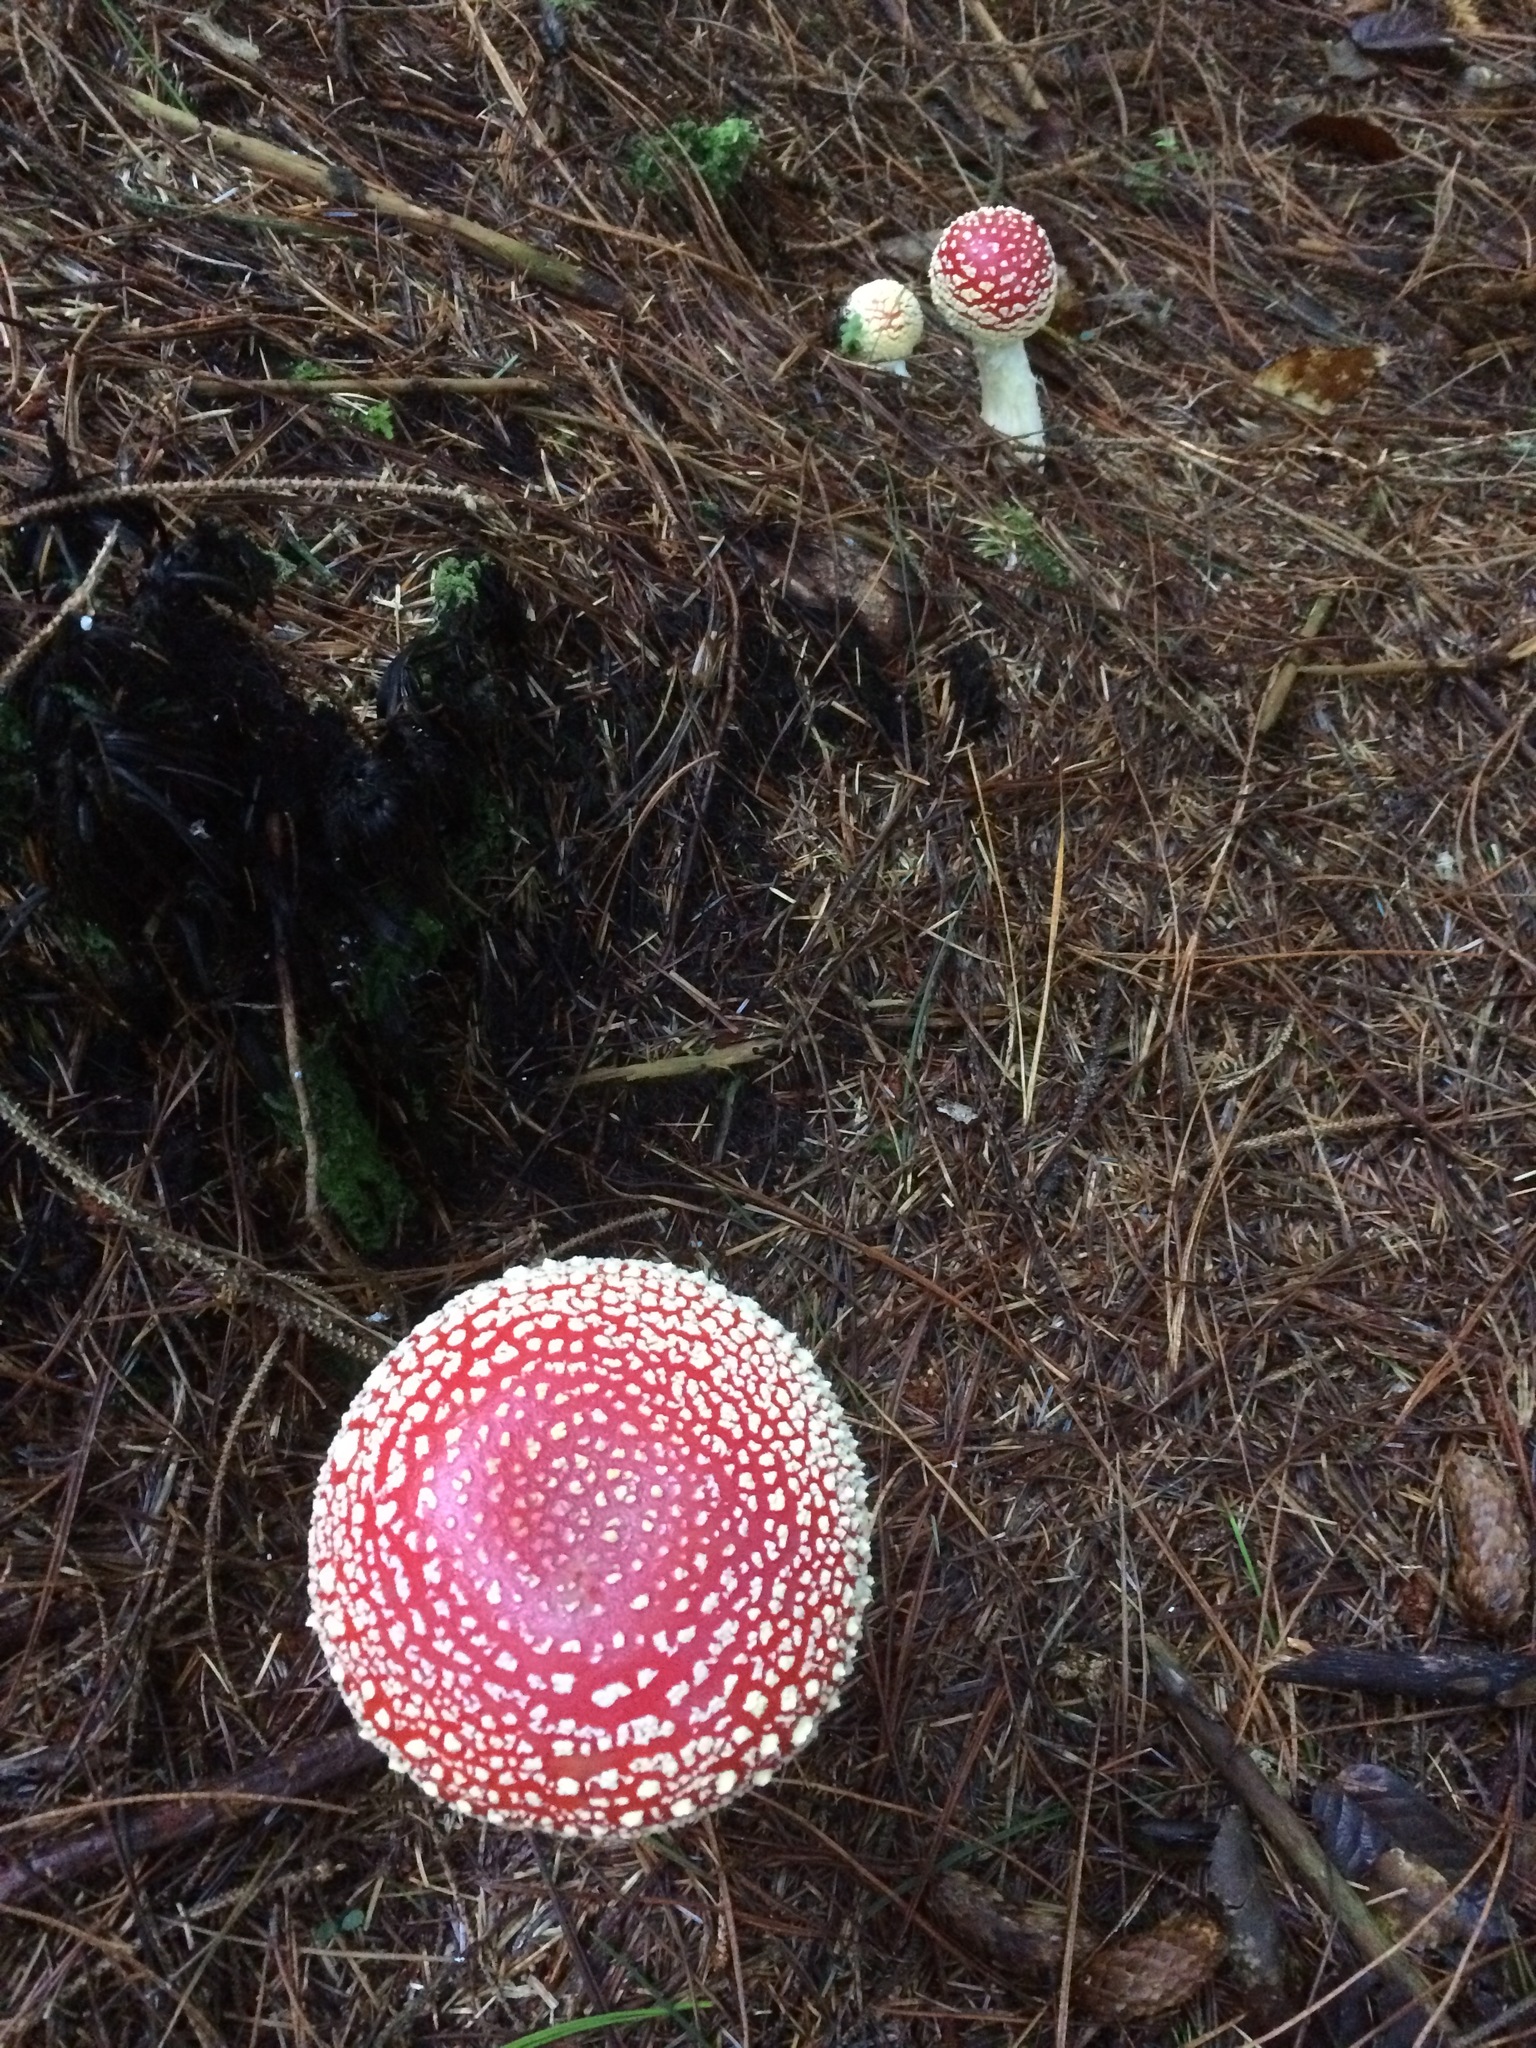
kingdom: Fungi
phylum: Basidiomycota
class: Agaricomycetes
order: Agaricales
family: Amanitaceae
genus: Amanita
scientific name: Amanita muscaria
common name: Fly agaric
